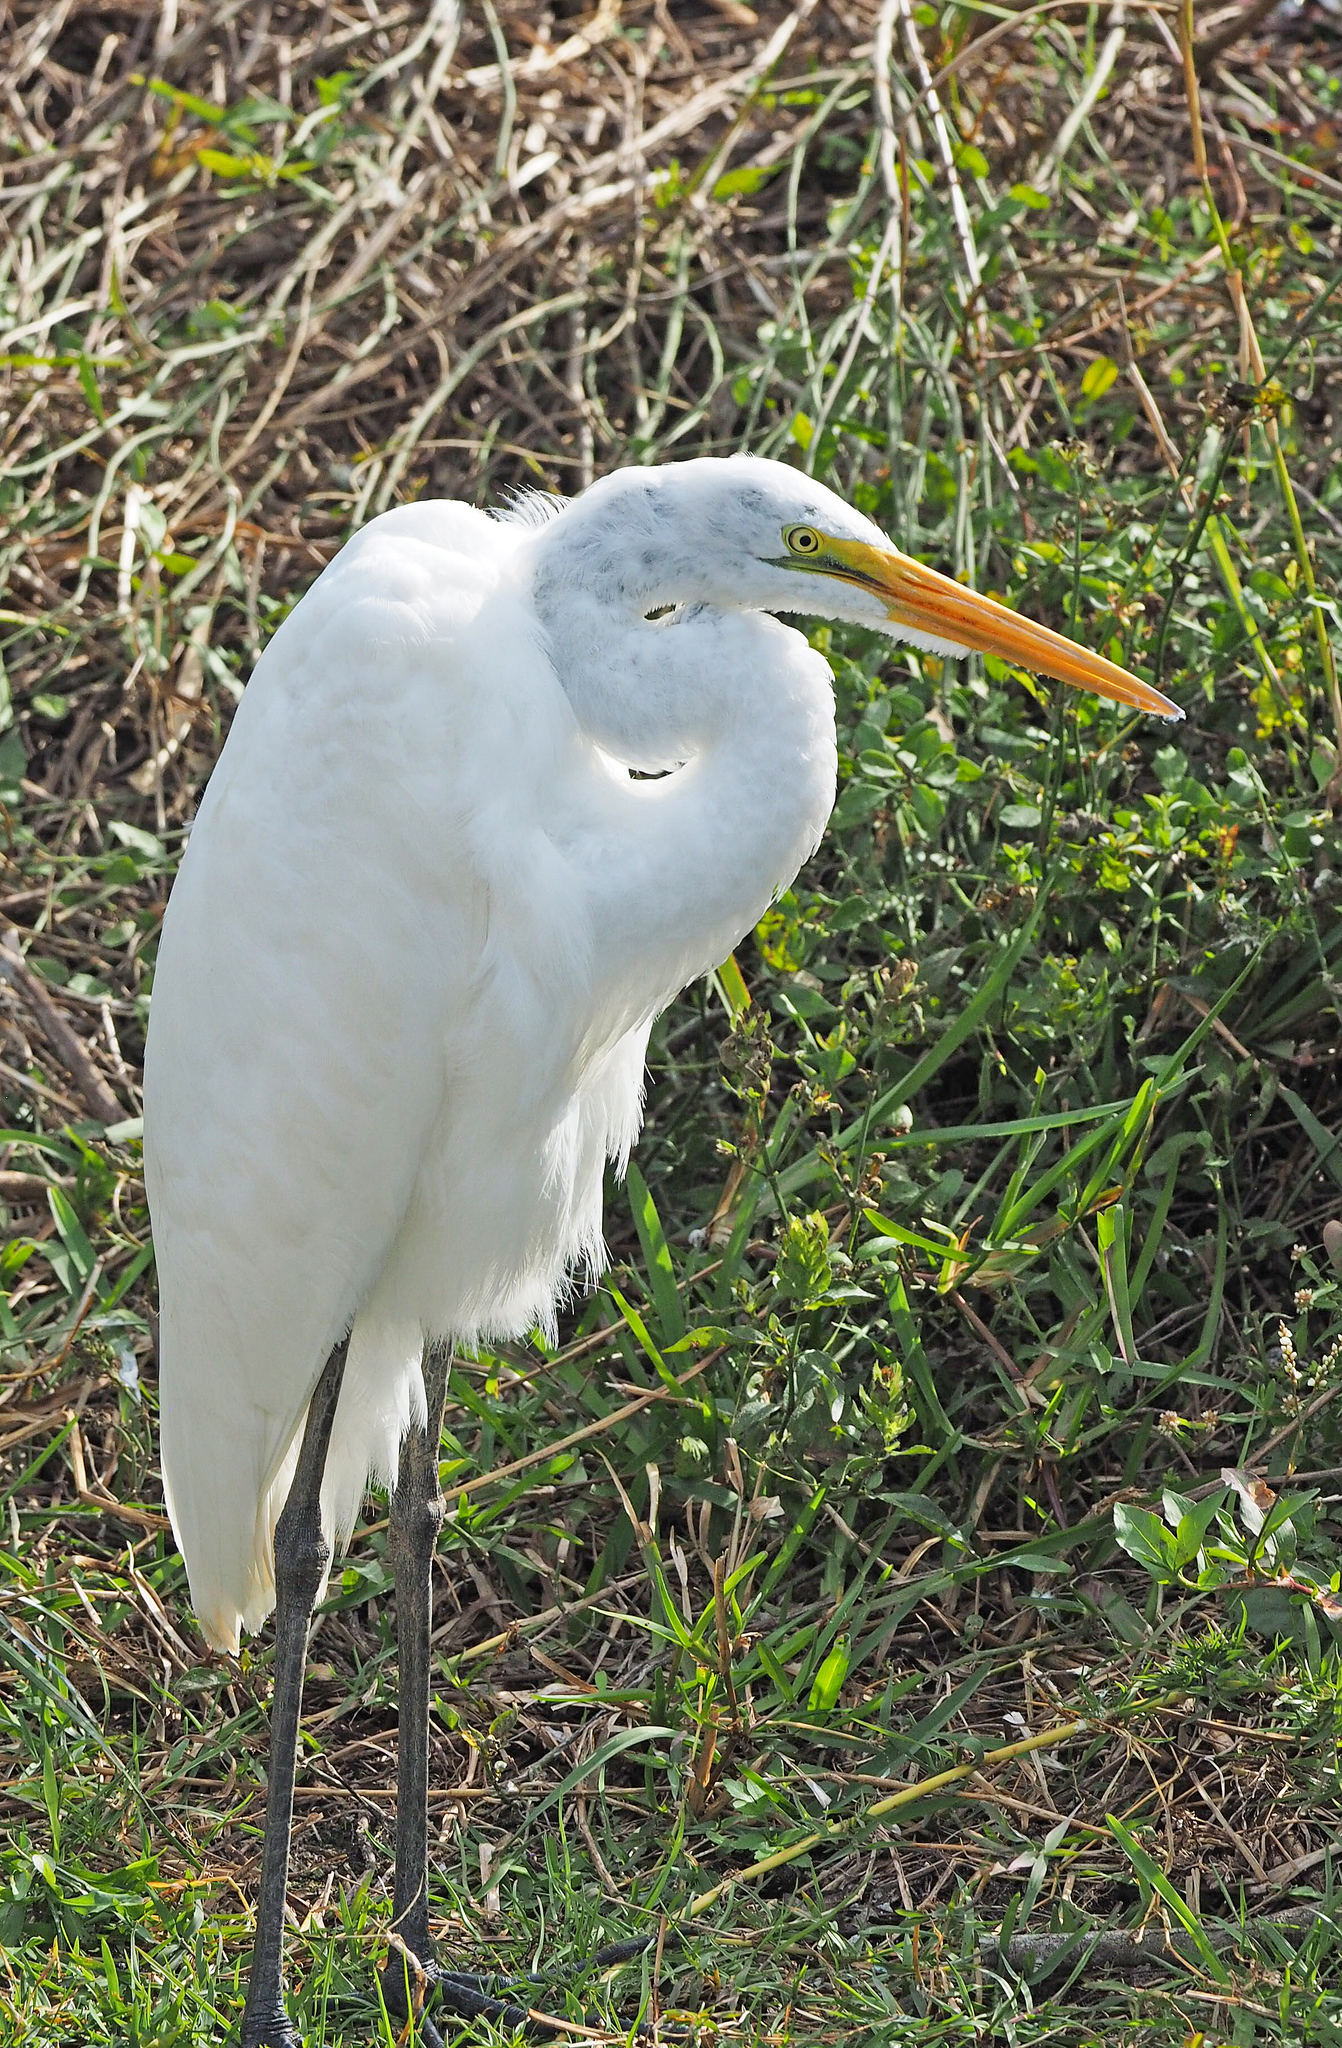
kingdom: Animalia
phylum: Chordata
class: Aves
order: Pelecaniformes
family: Ardeidae
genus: Ardea
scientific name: Ardea alba
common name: Great egret
